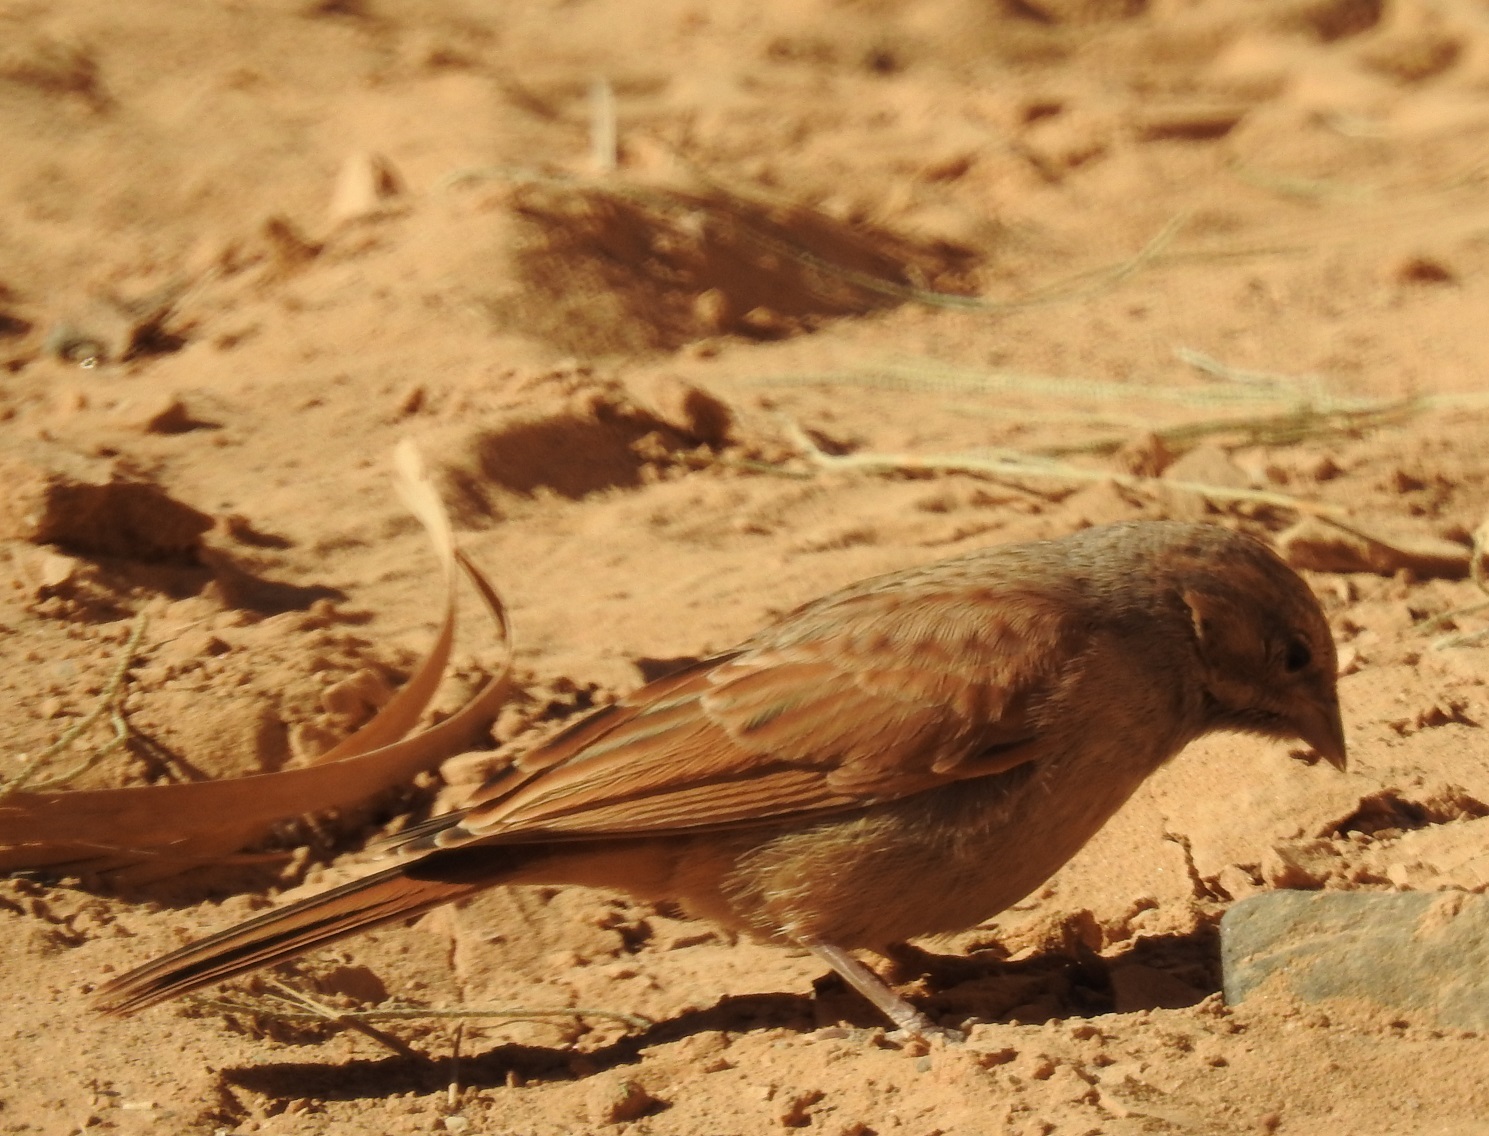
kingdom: Animalia
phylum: Chordata
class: Aves
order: Passeriformes
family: Emberizidae
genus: Emberiza
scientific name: Emberiza sahari
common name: House bunting
